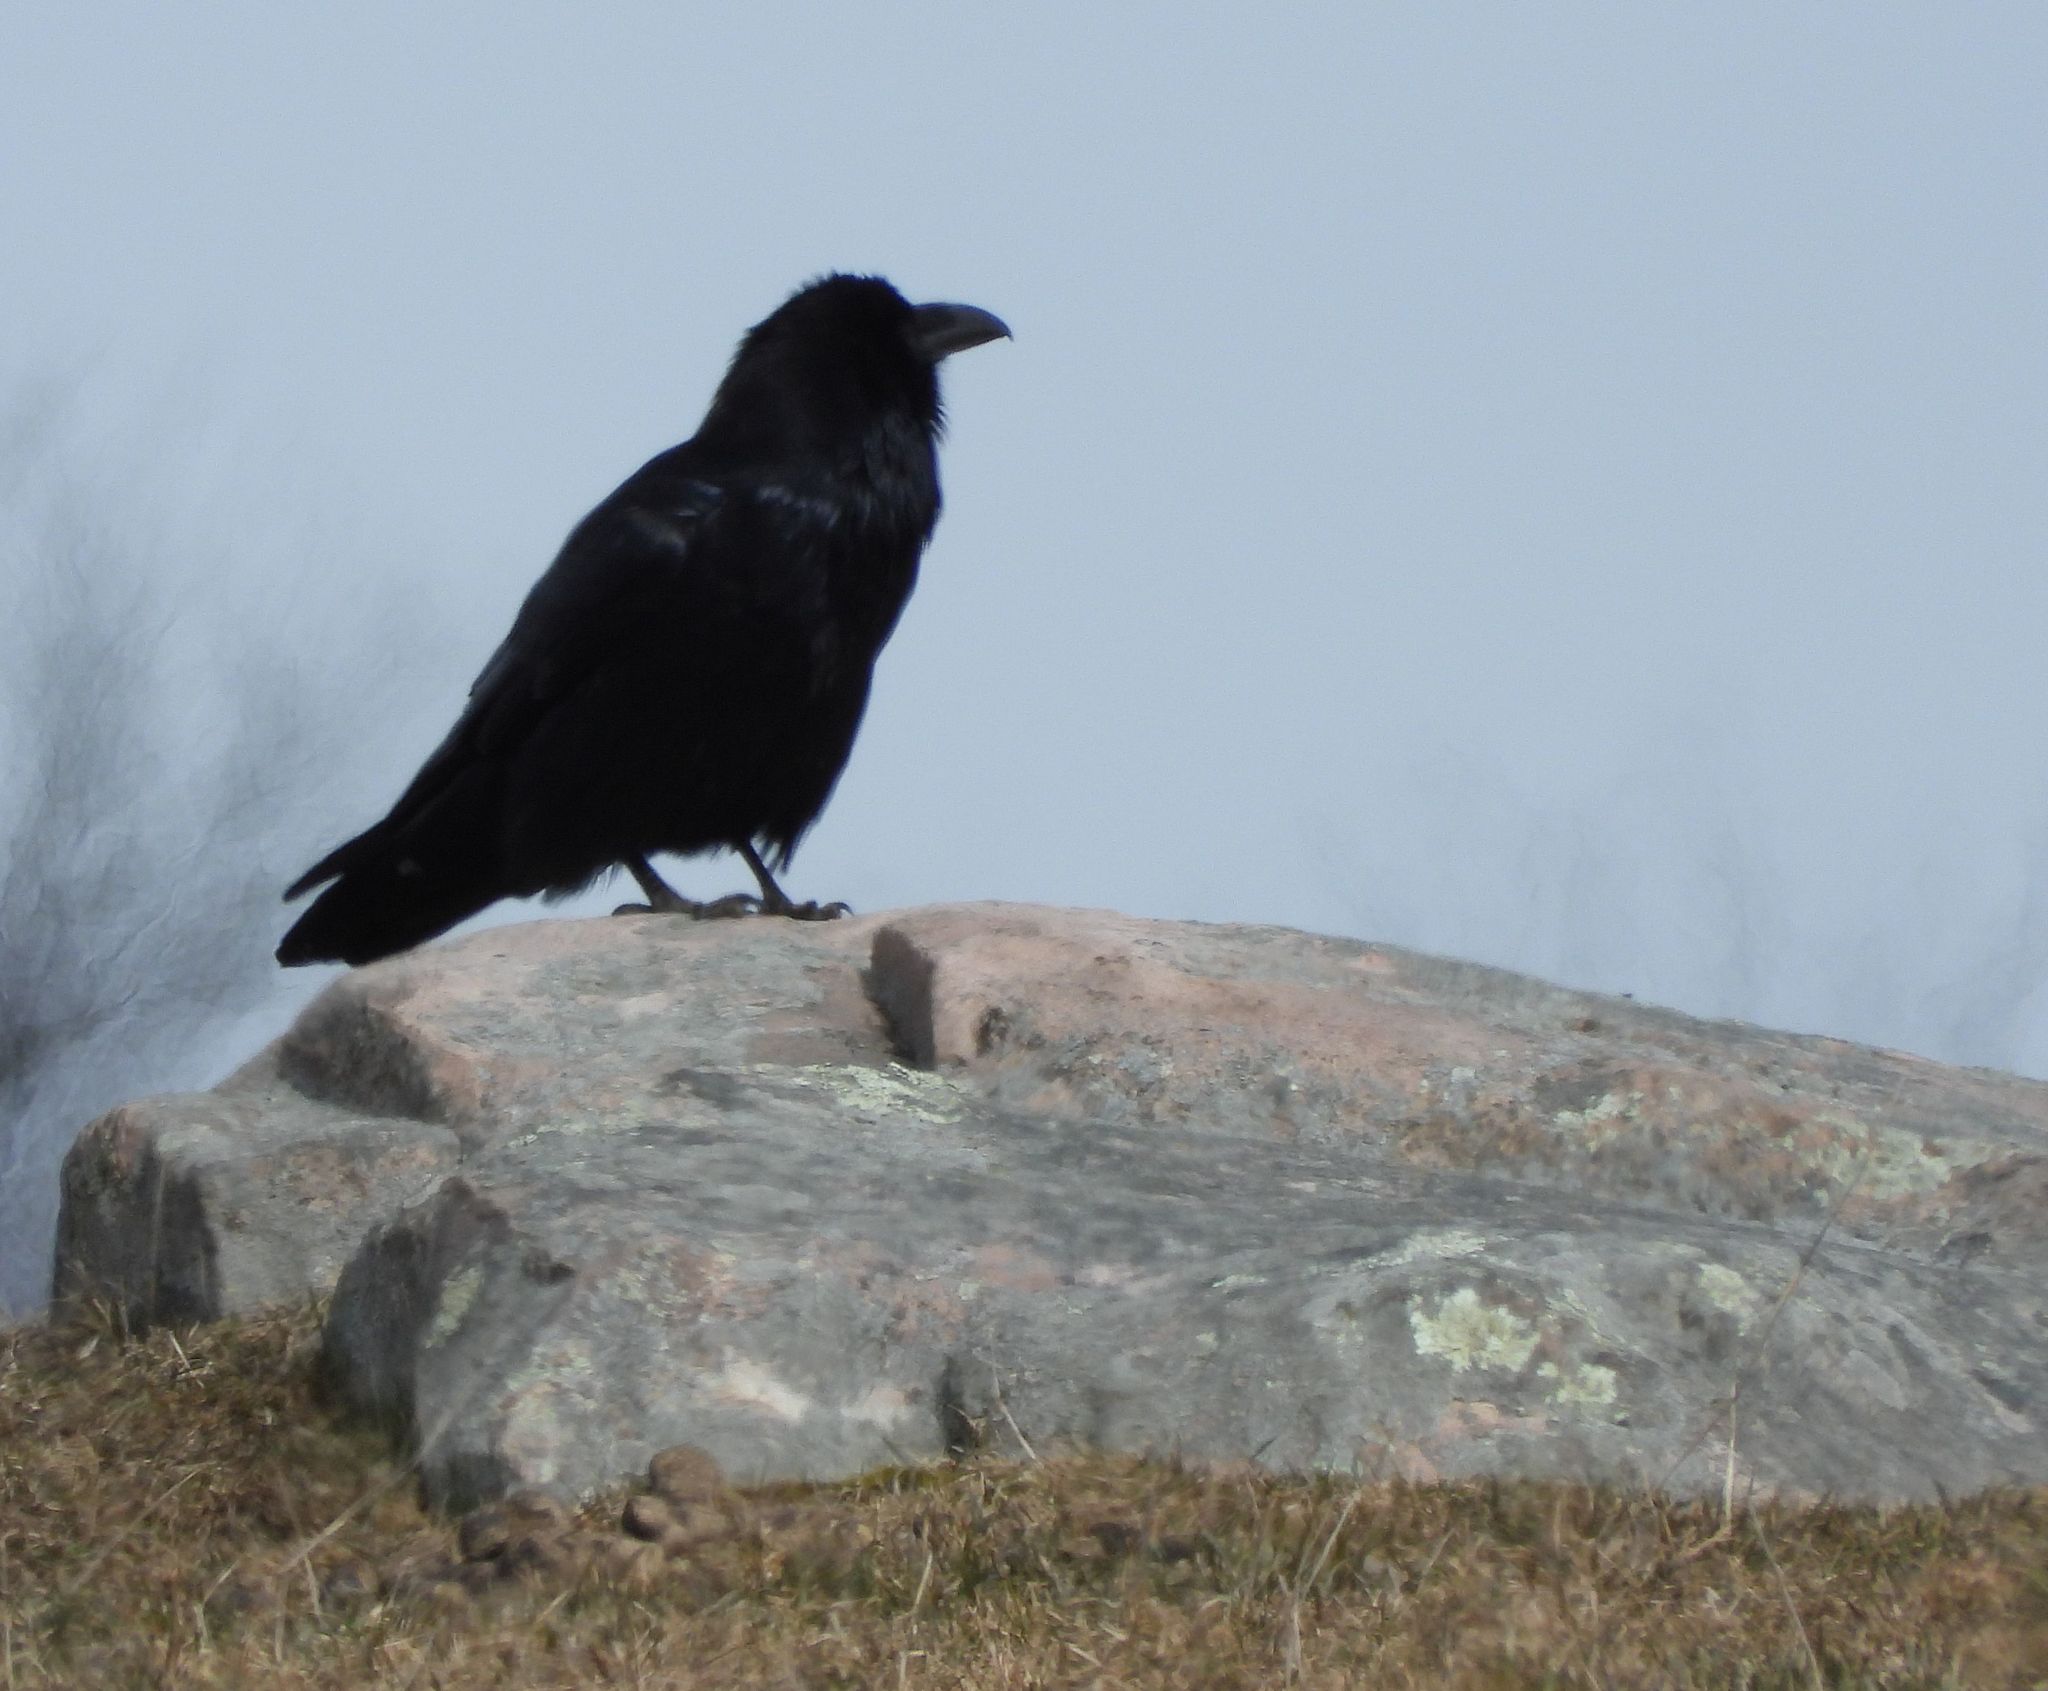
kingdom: Animalia
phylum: Chordata
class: Aves
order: Passeriformes
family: Corvidae
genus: Corvus
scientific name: Corvus corax
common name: Common raven
